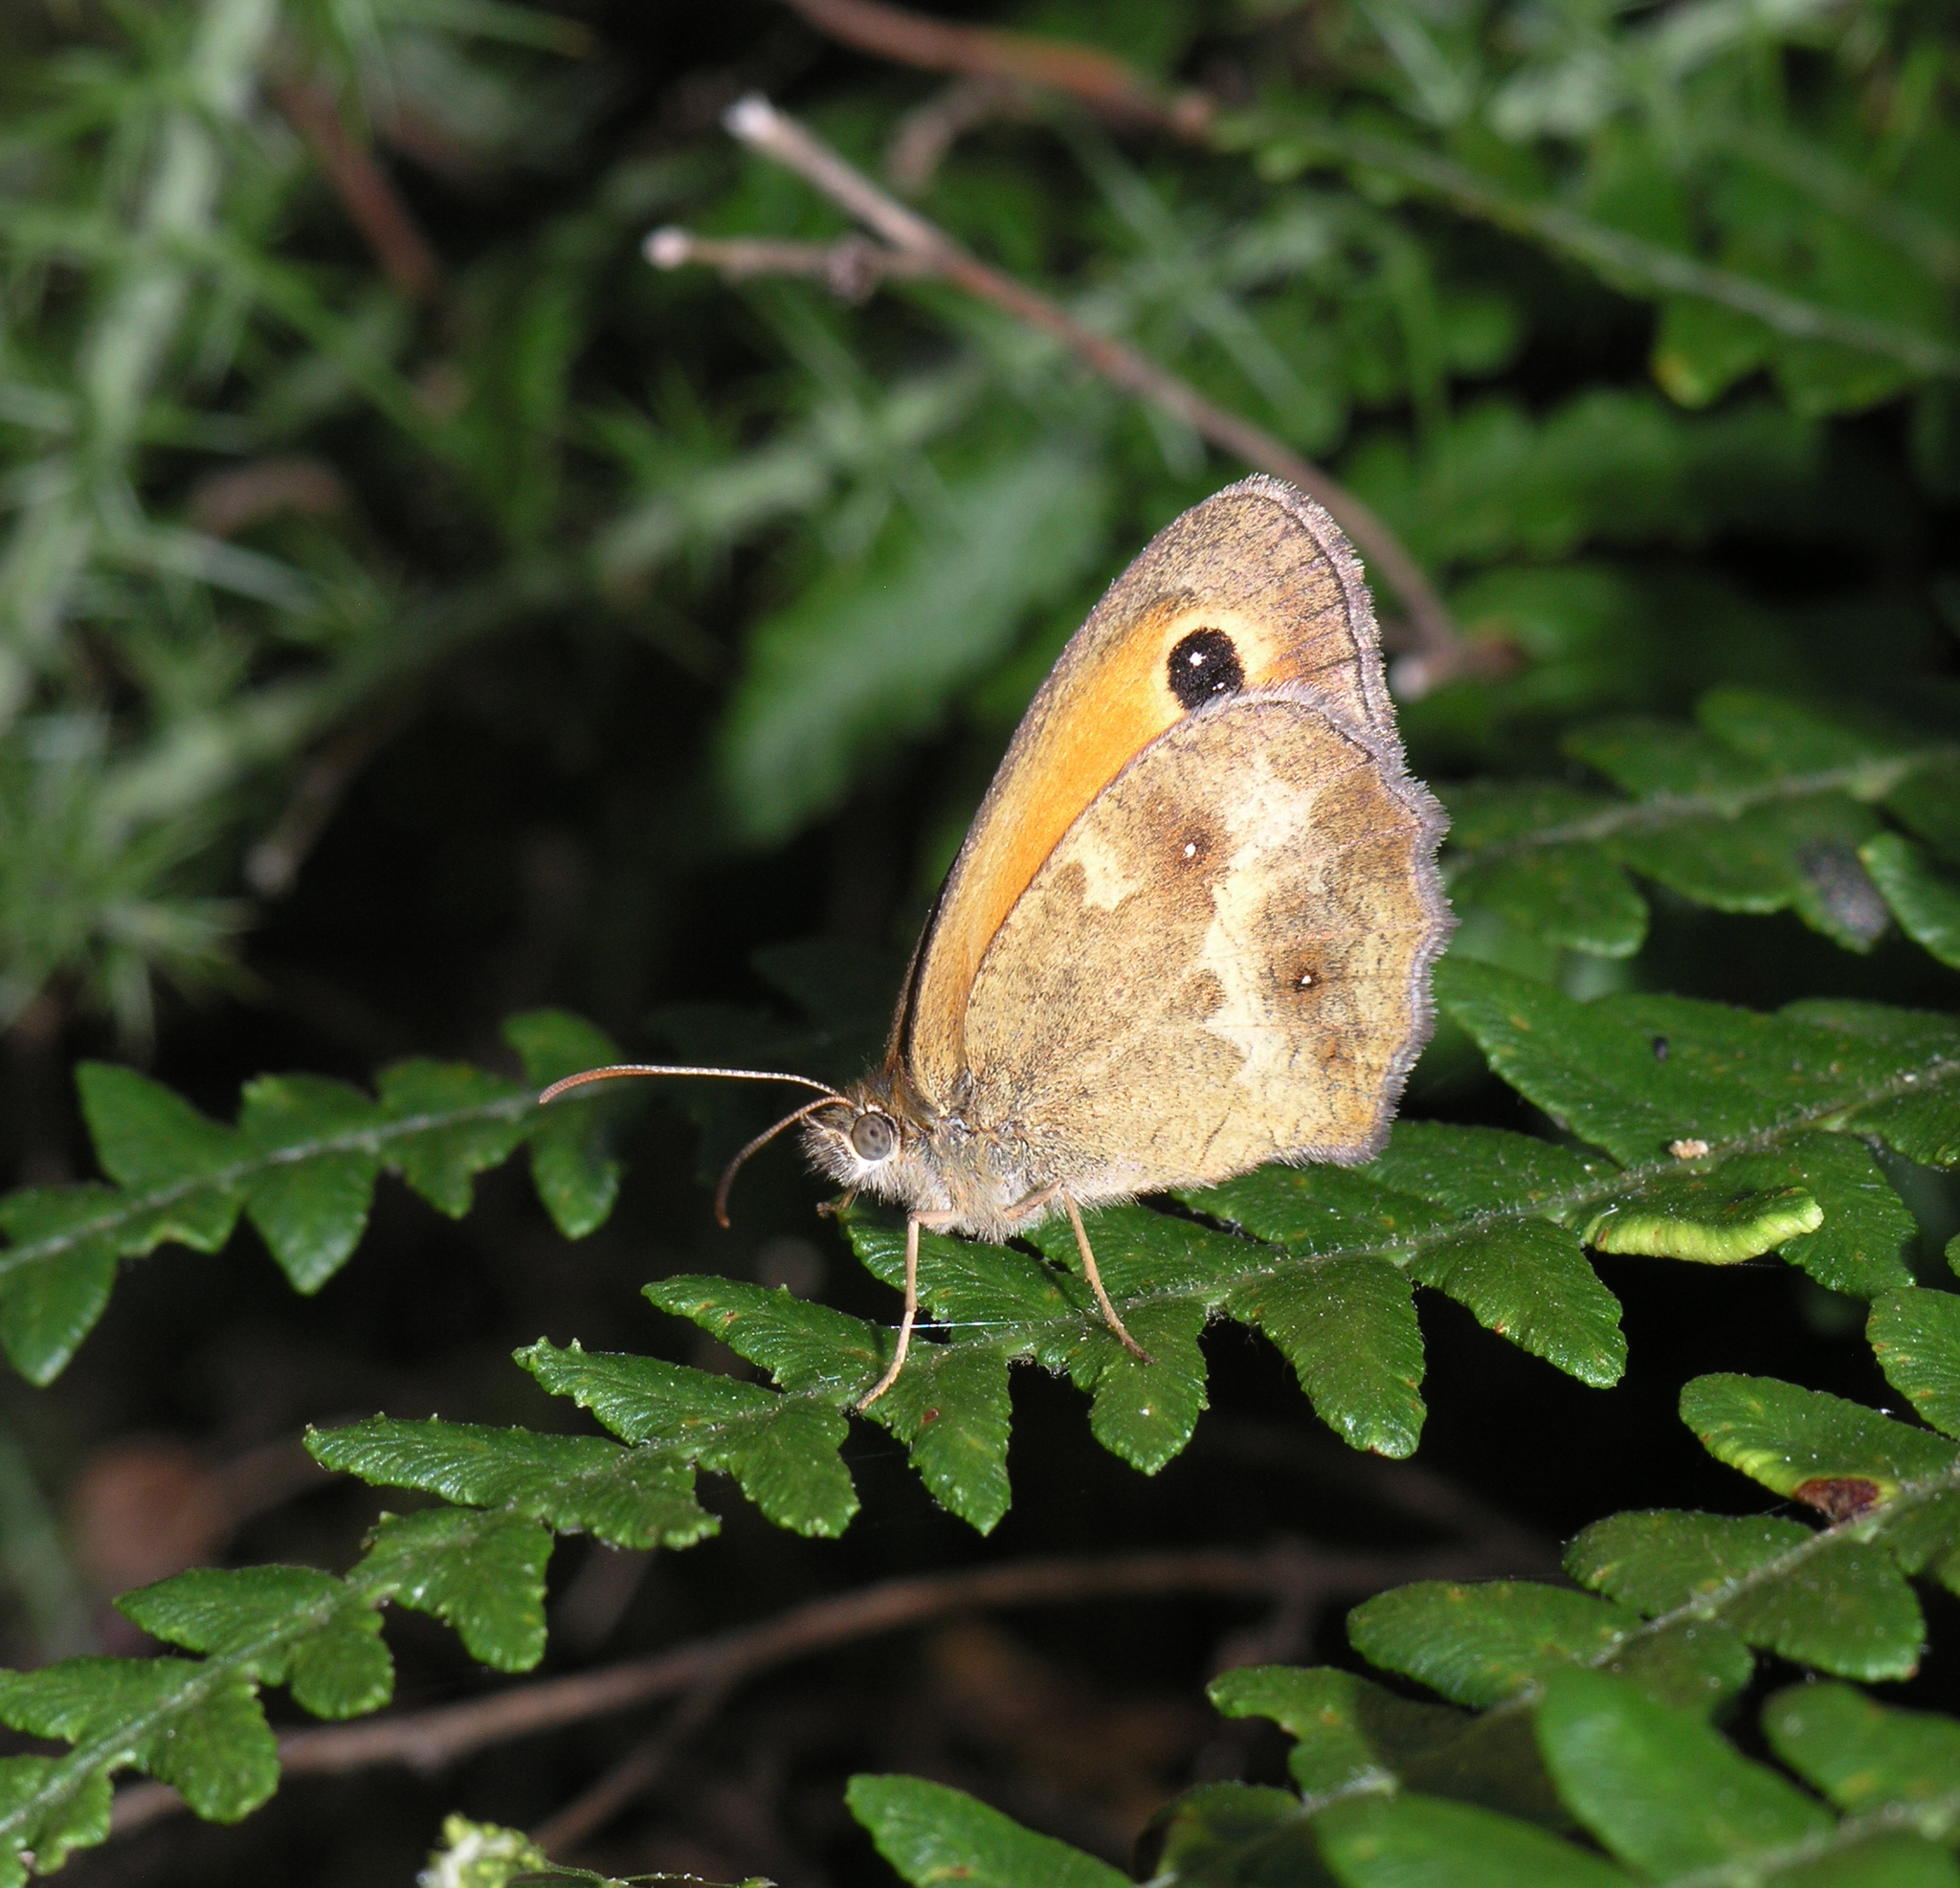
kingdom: Animalia
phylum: Arthropoda
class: Insecta
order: Lepidoptera
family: Nymphalidae
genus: Pyronia
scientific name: Pyronia tithonus
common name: Gatekeeper
